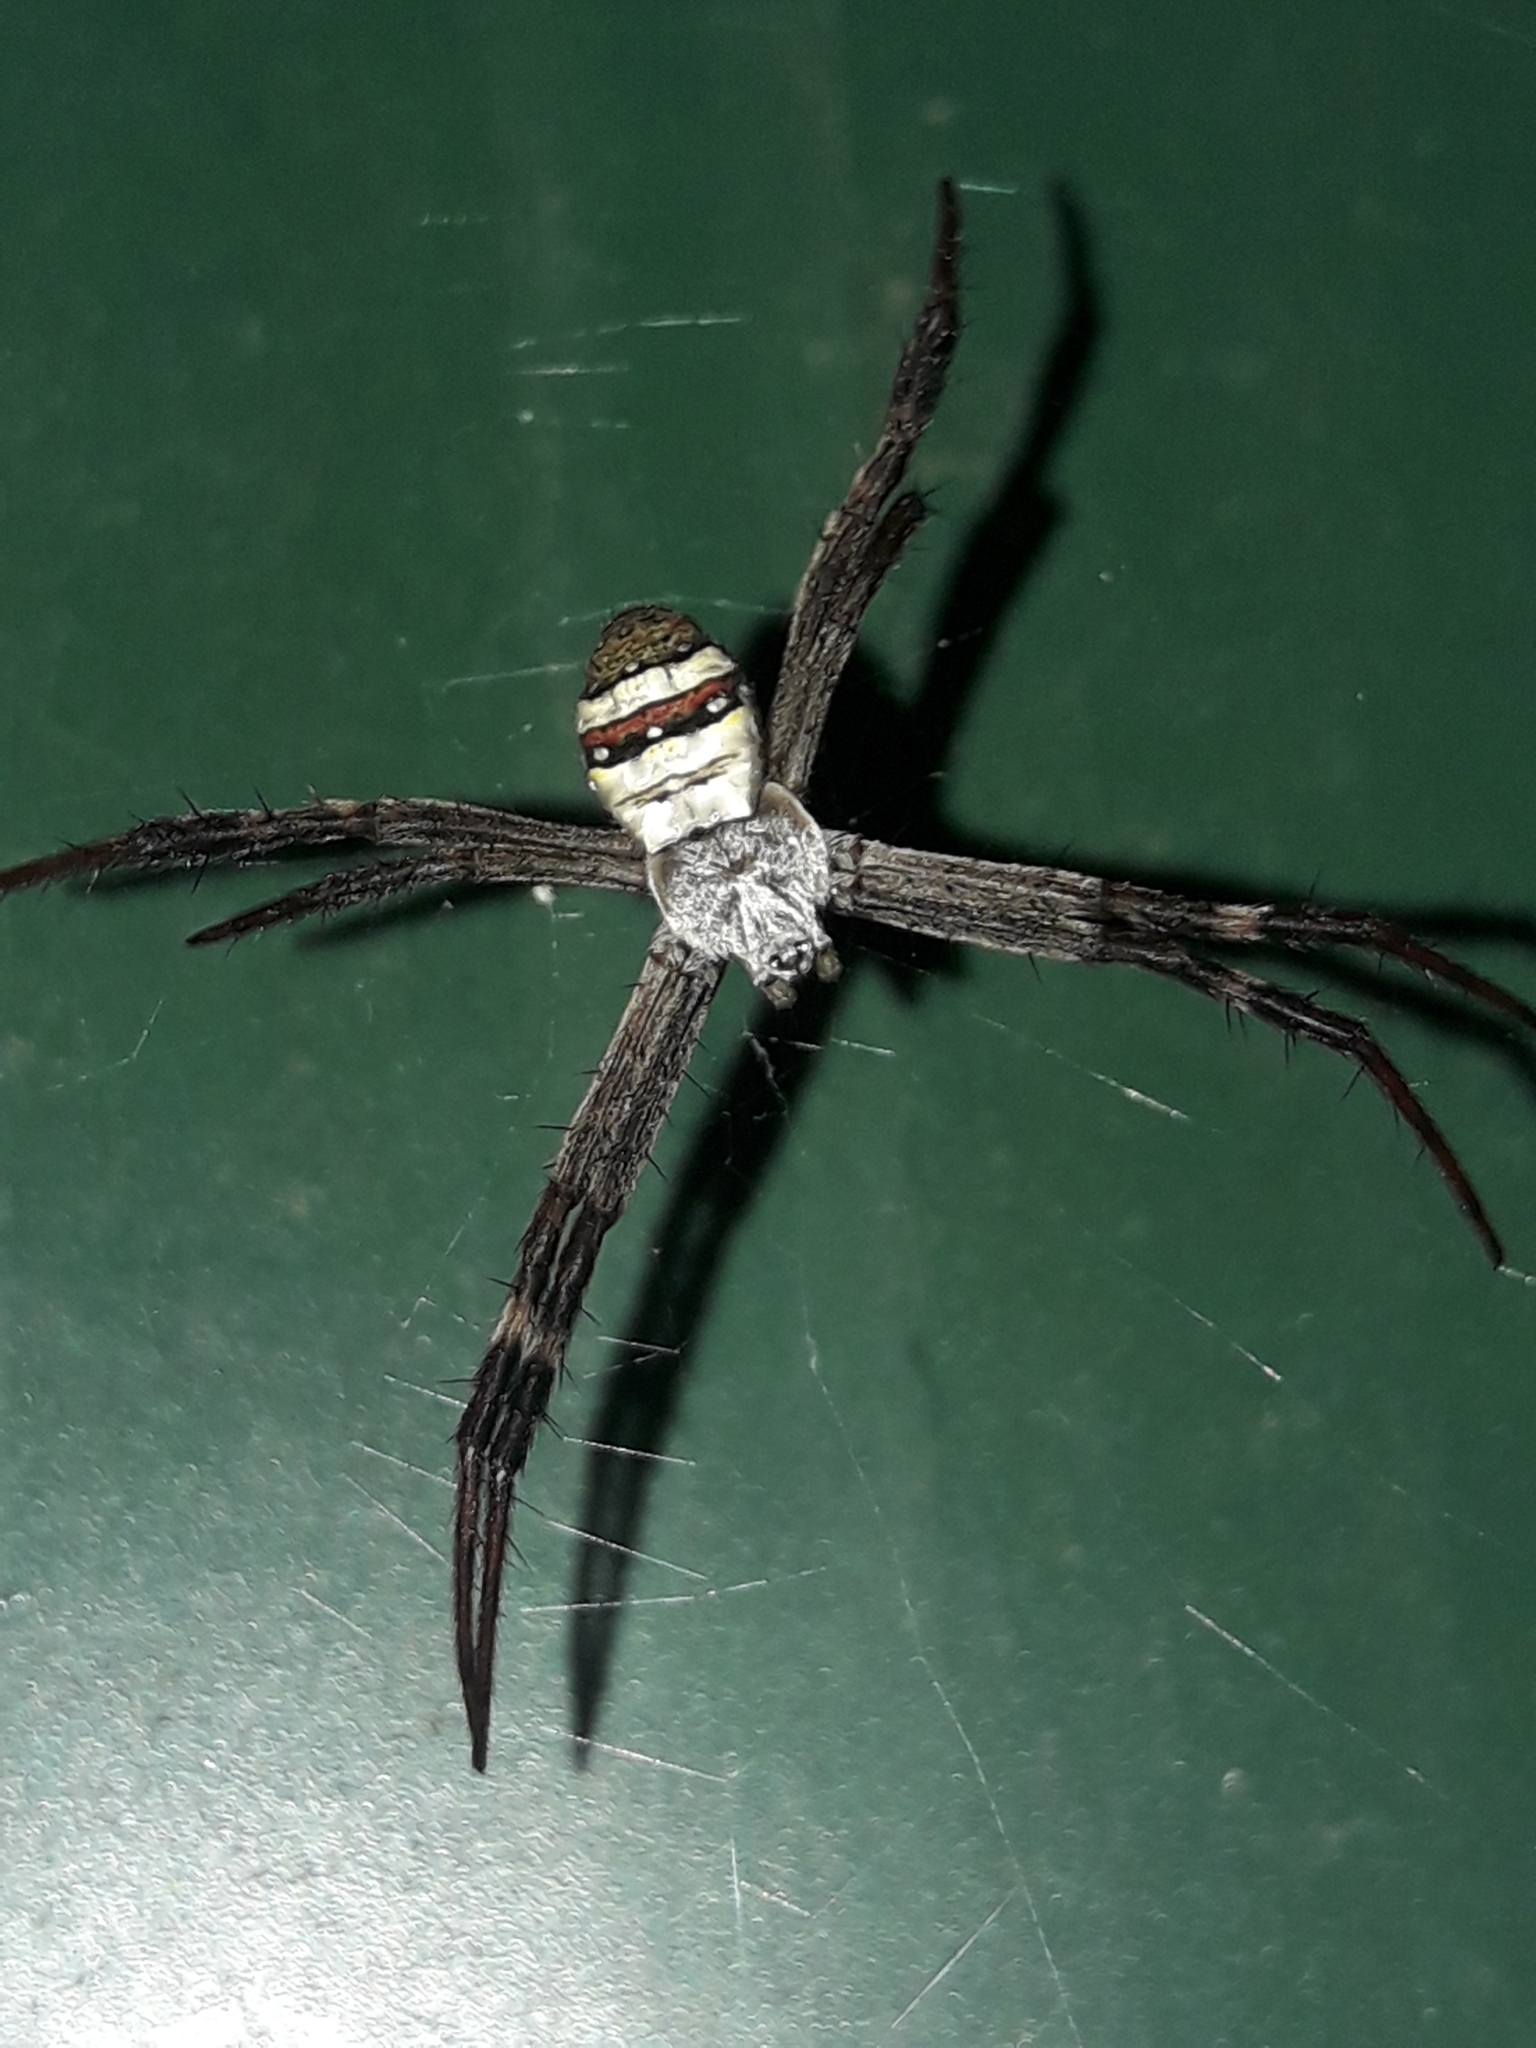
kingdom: Animalia
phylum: Arthropoda
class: Arachnida
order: Araneae
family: Araneidae
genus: Argiope
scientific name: Argiope keyserlingi
